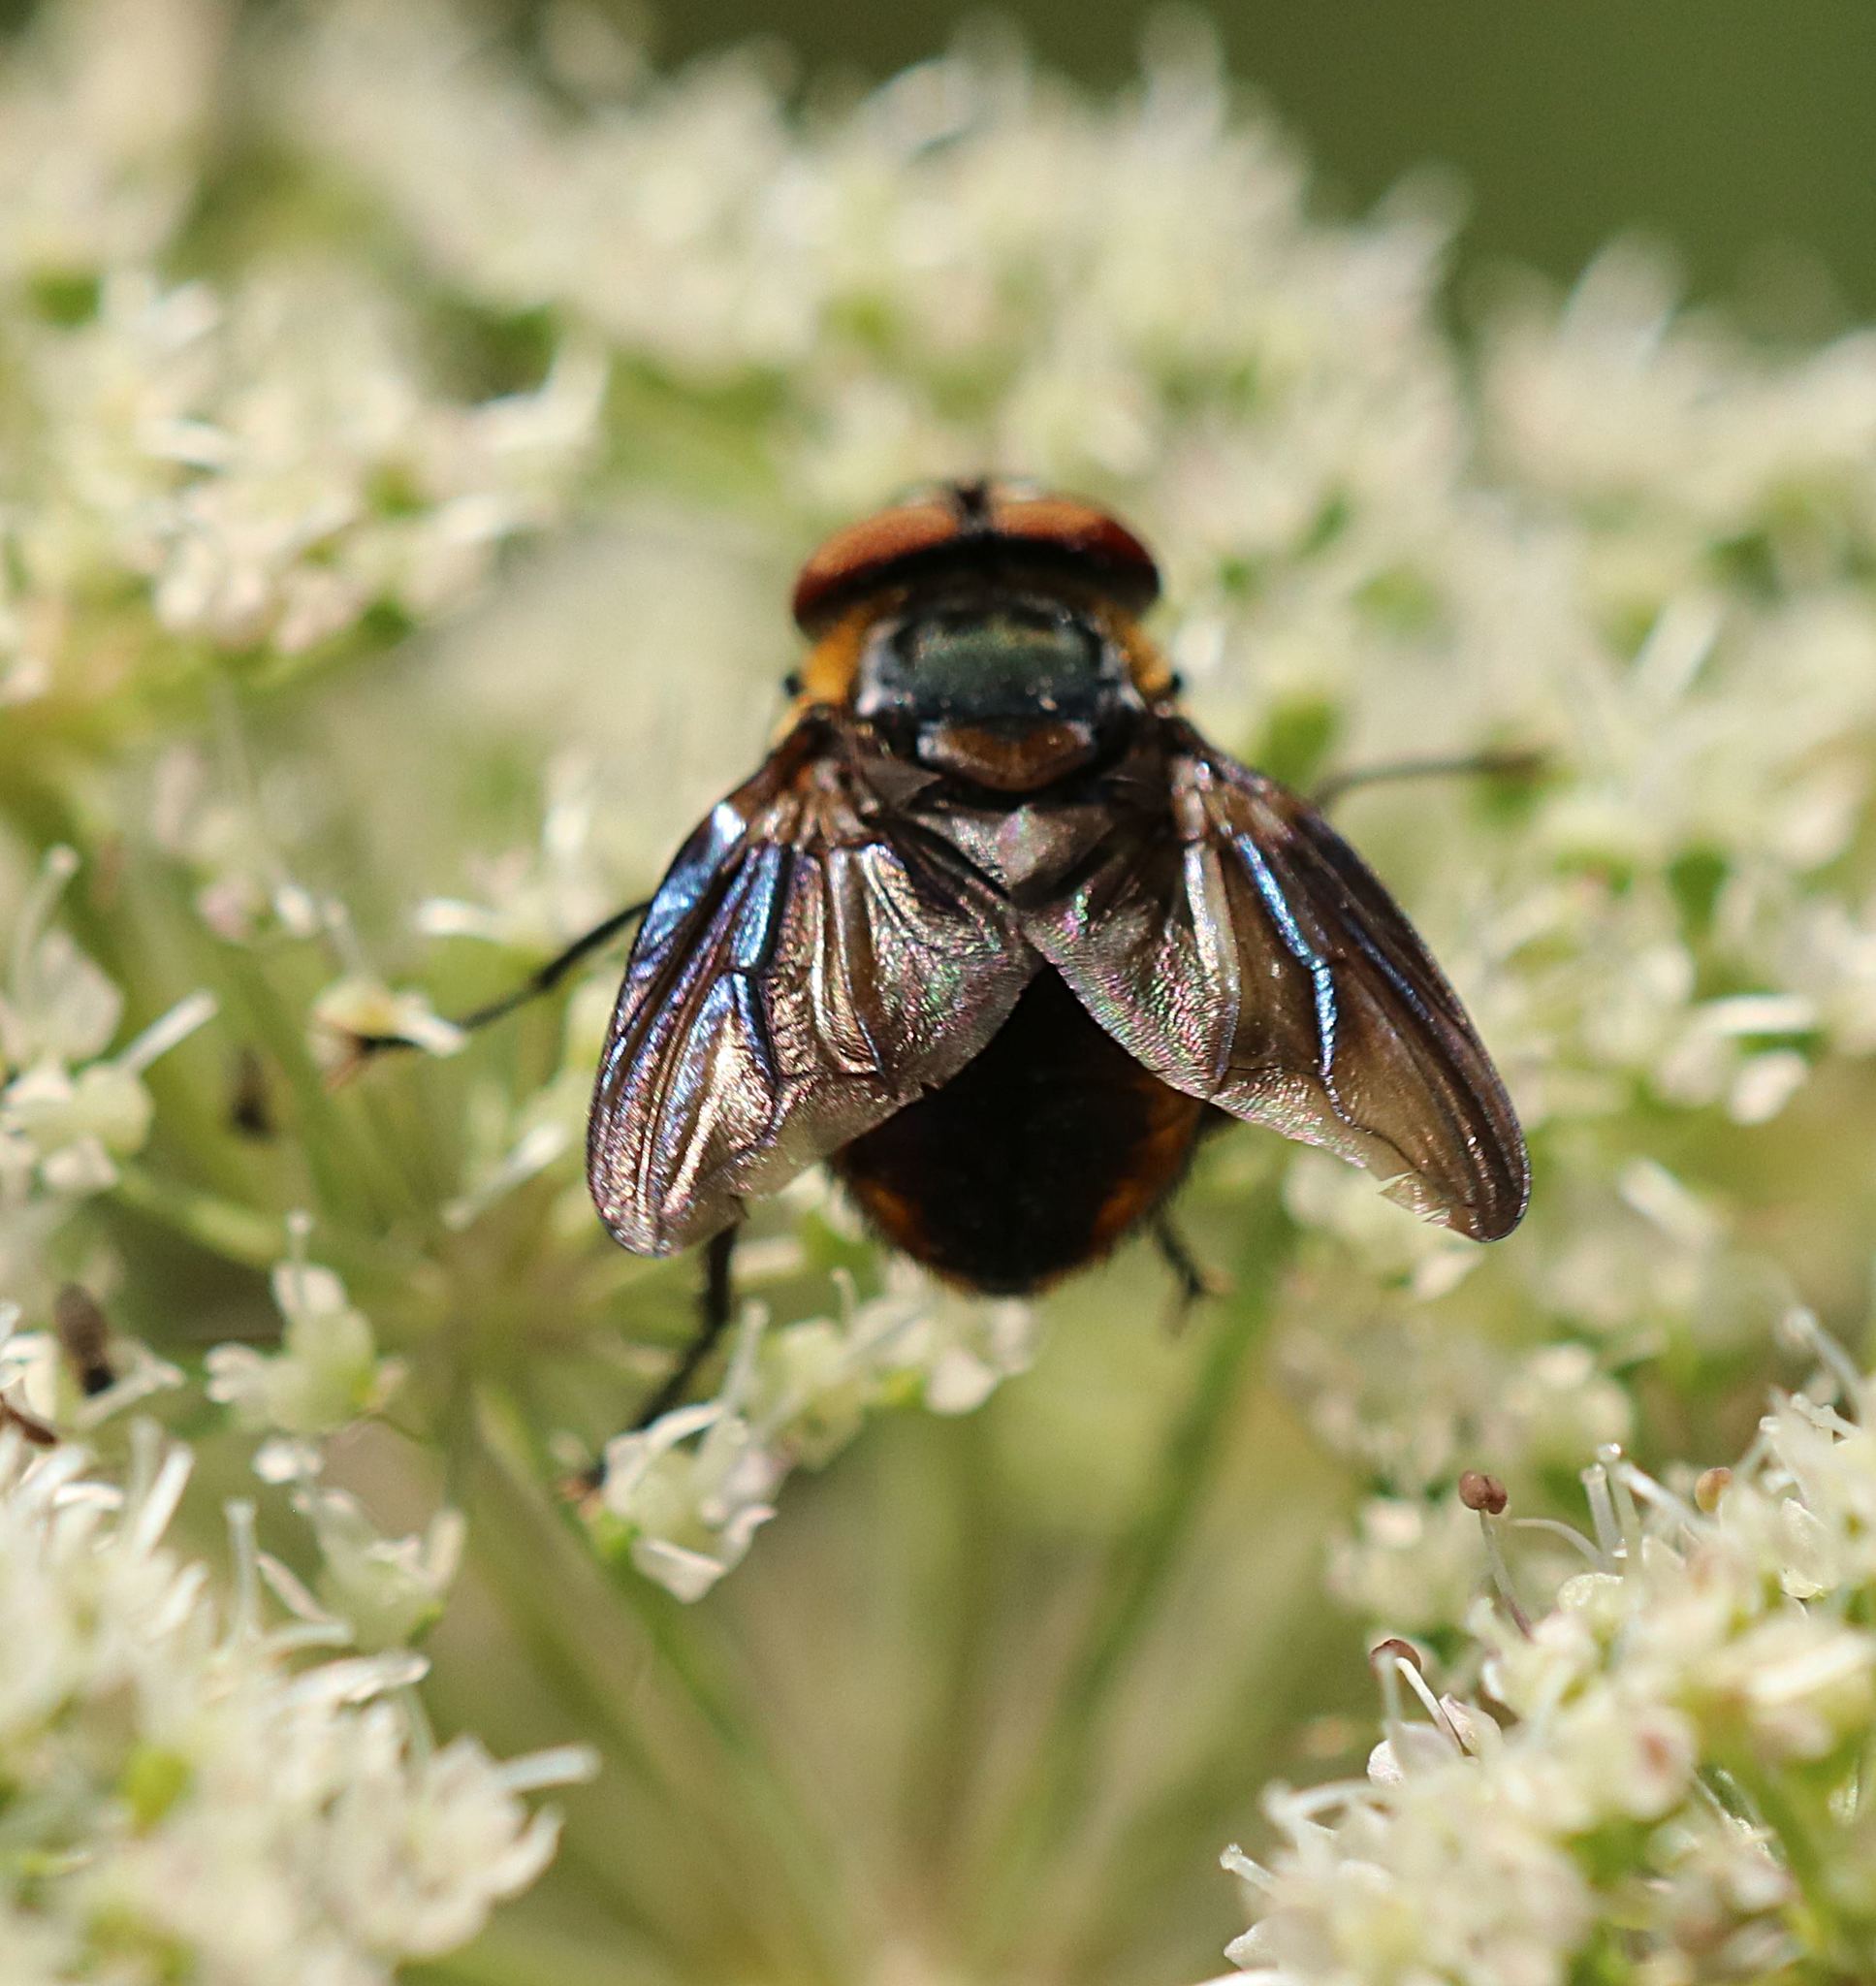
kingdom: Animalia
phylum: Arthropoda
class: Insecta
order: Diptera
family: Tachinidae
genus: Phasia
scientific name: Phasia hemiptera
